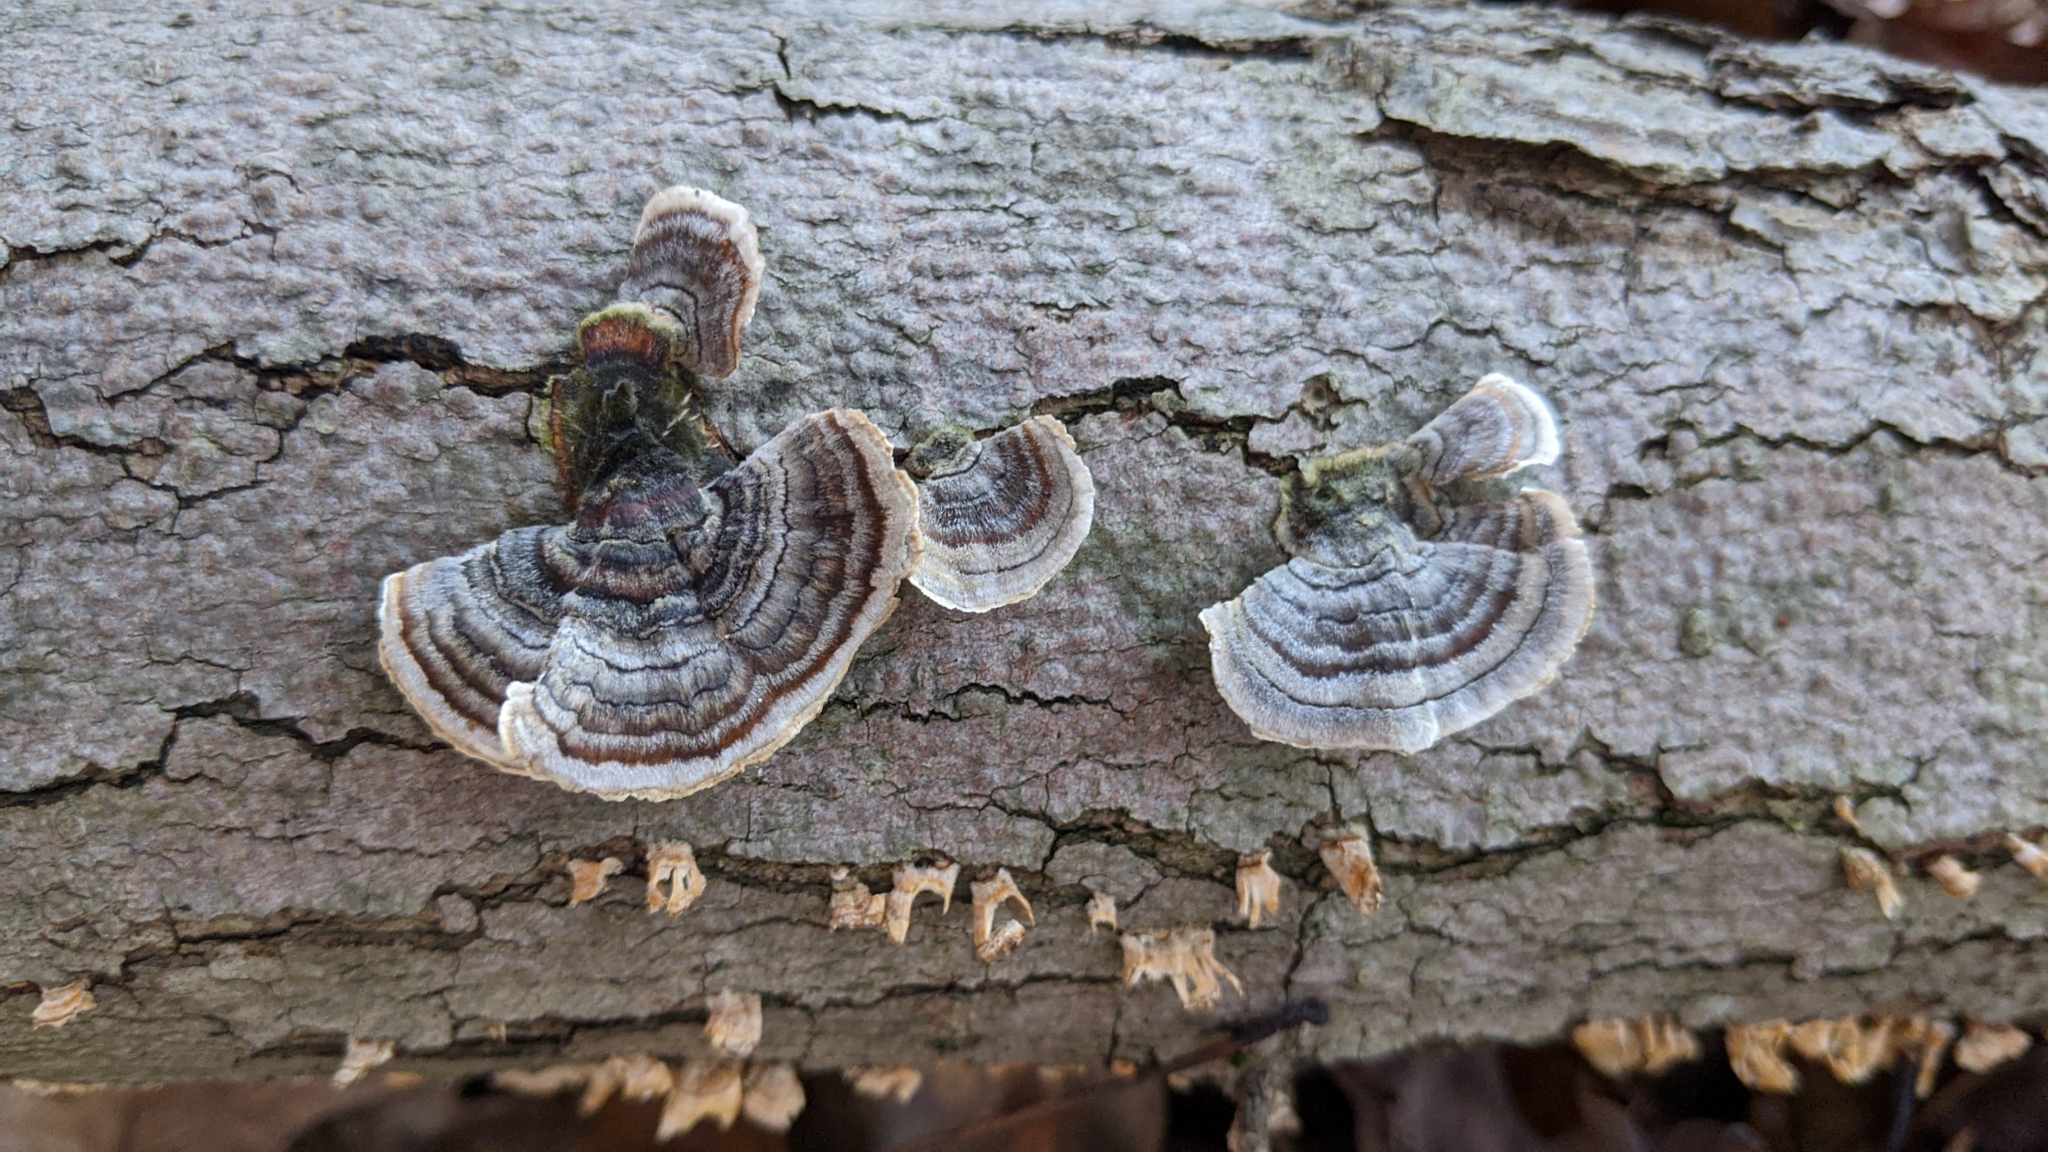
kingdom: Fungi
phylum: Basidiomycota
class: Agaricomycetes
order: Polyporales
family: Polyporaceae
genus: Trametes
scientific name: Trametes versicolor
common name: Turkeytail
